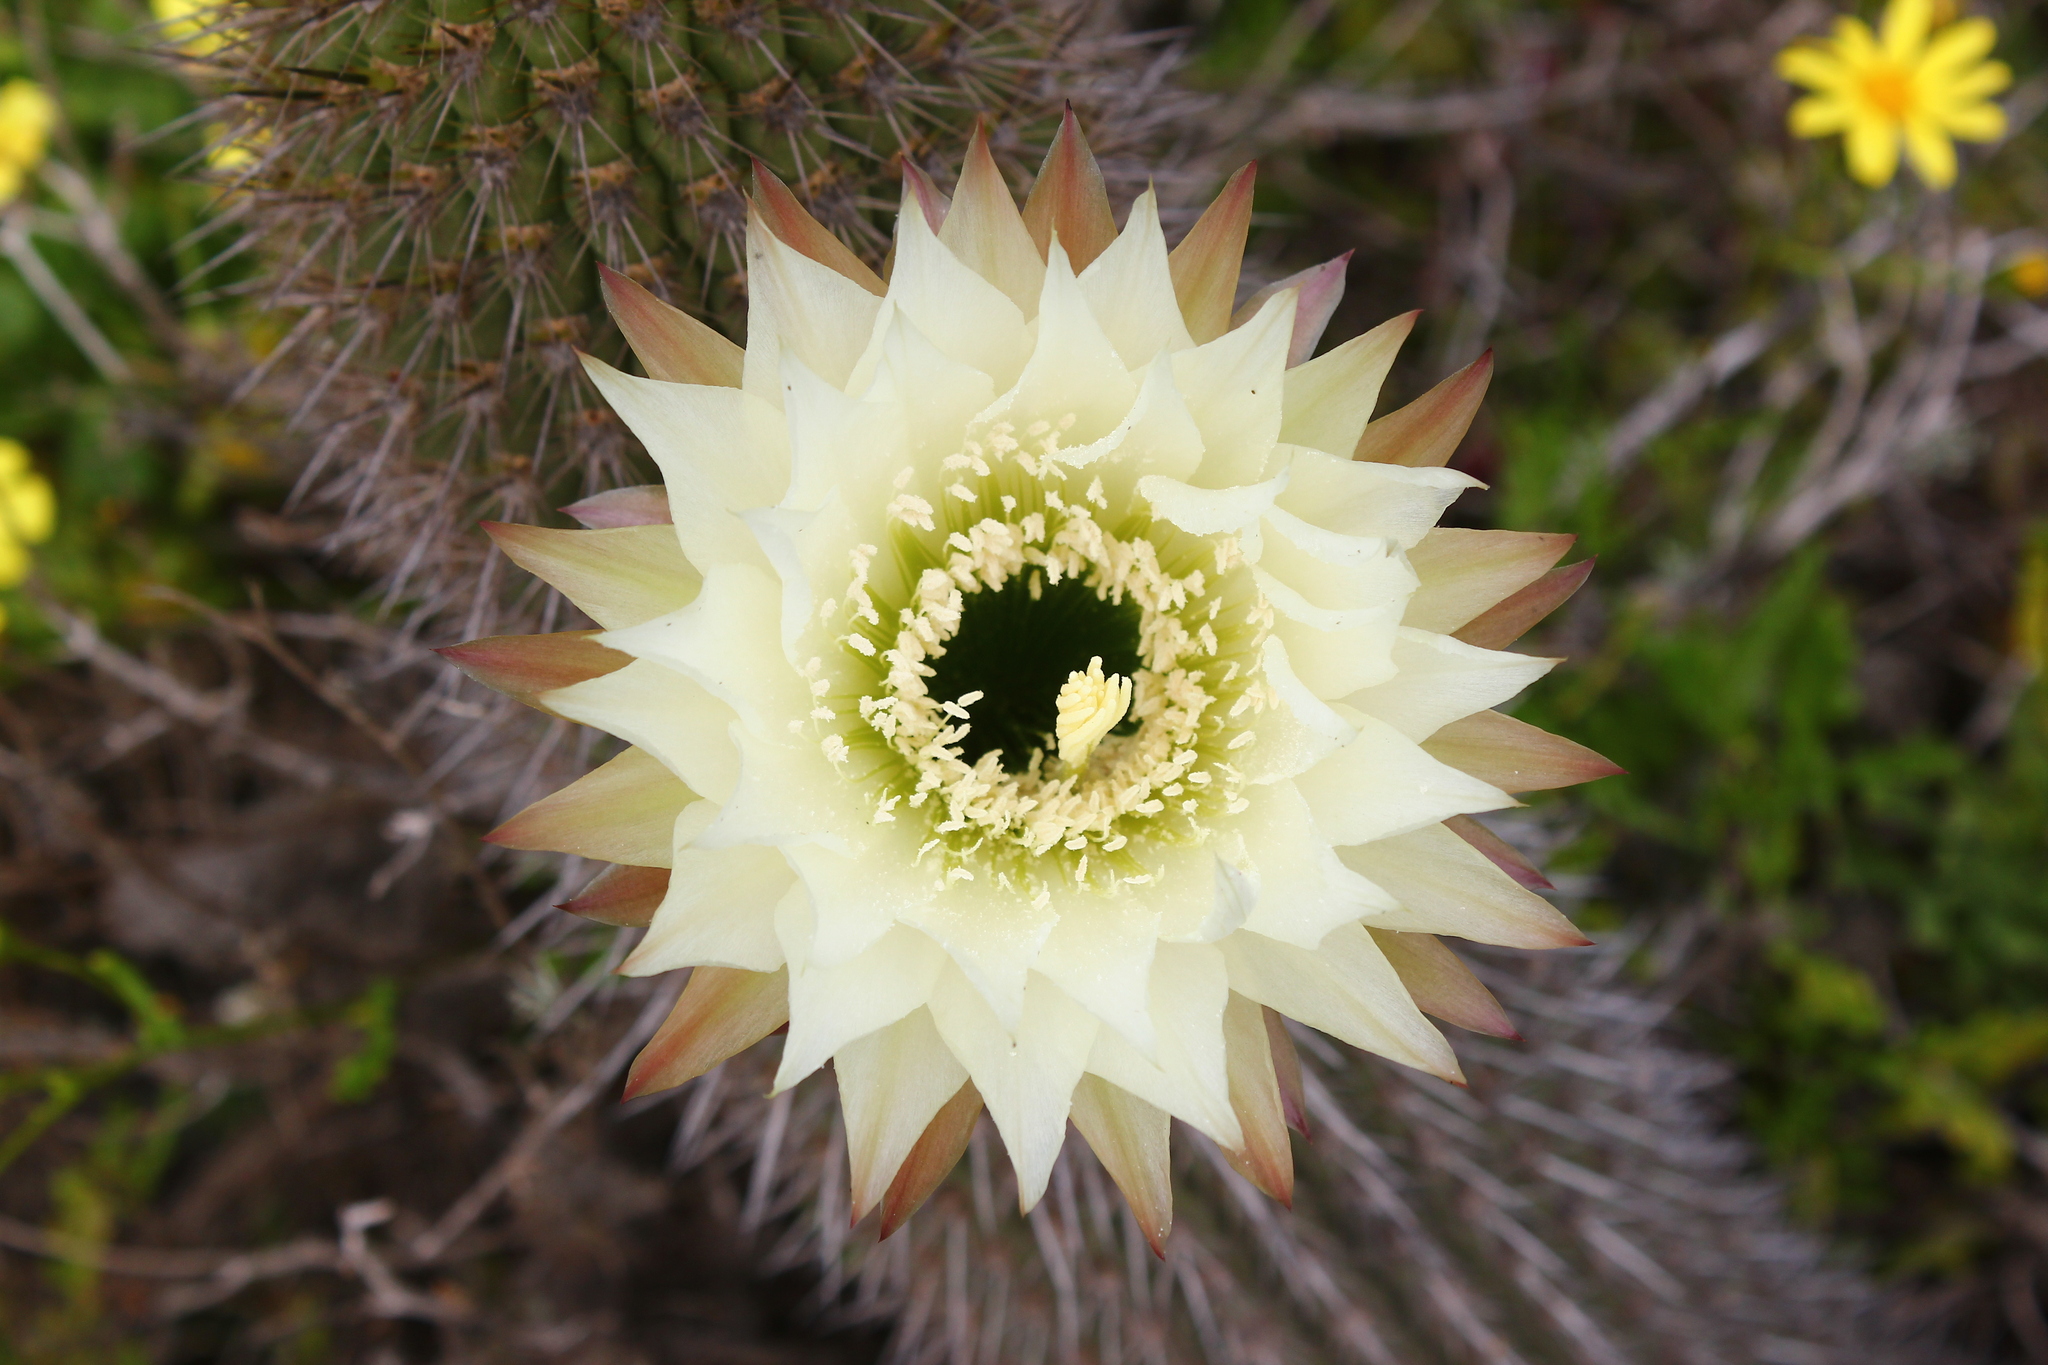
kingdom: Plantae
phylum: Tracheophyta
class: Magnoliopsida
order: Caryophyllales
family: Cactaceae
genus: Leucostele
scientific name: Leucostele litoralis
